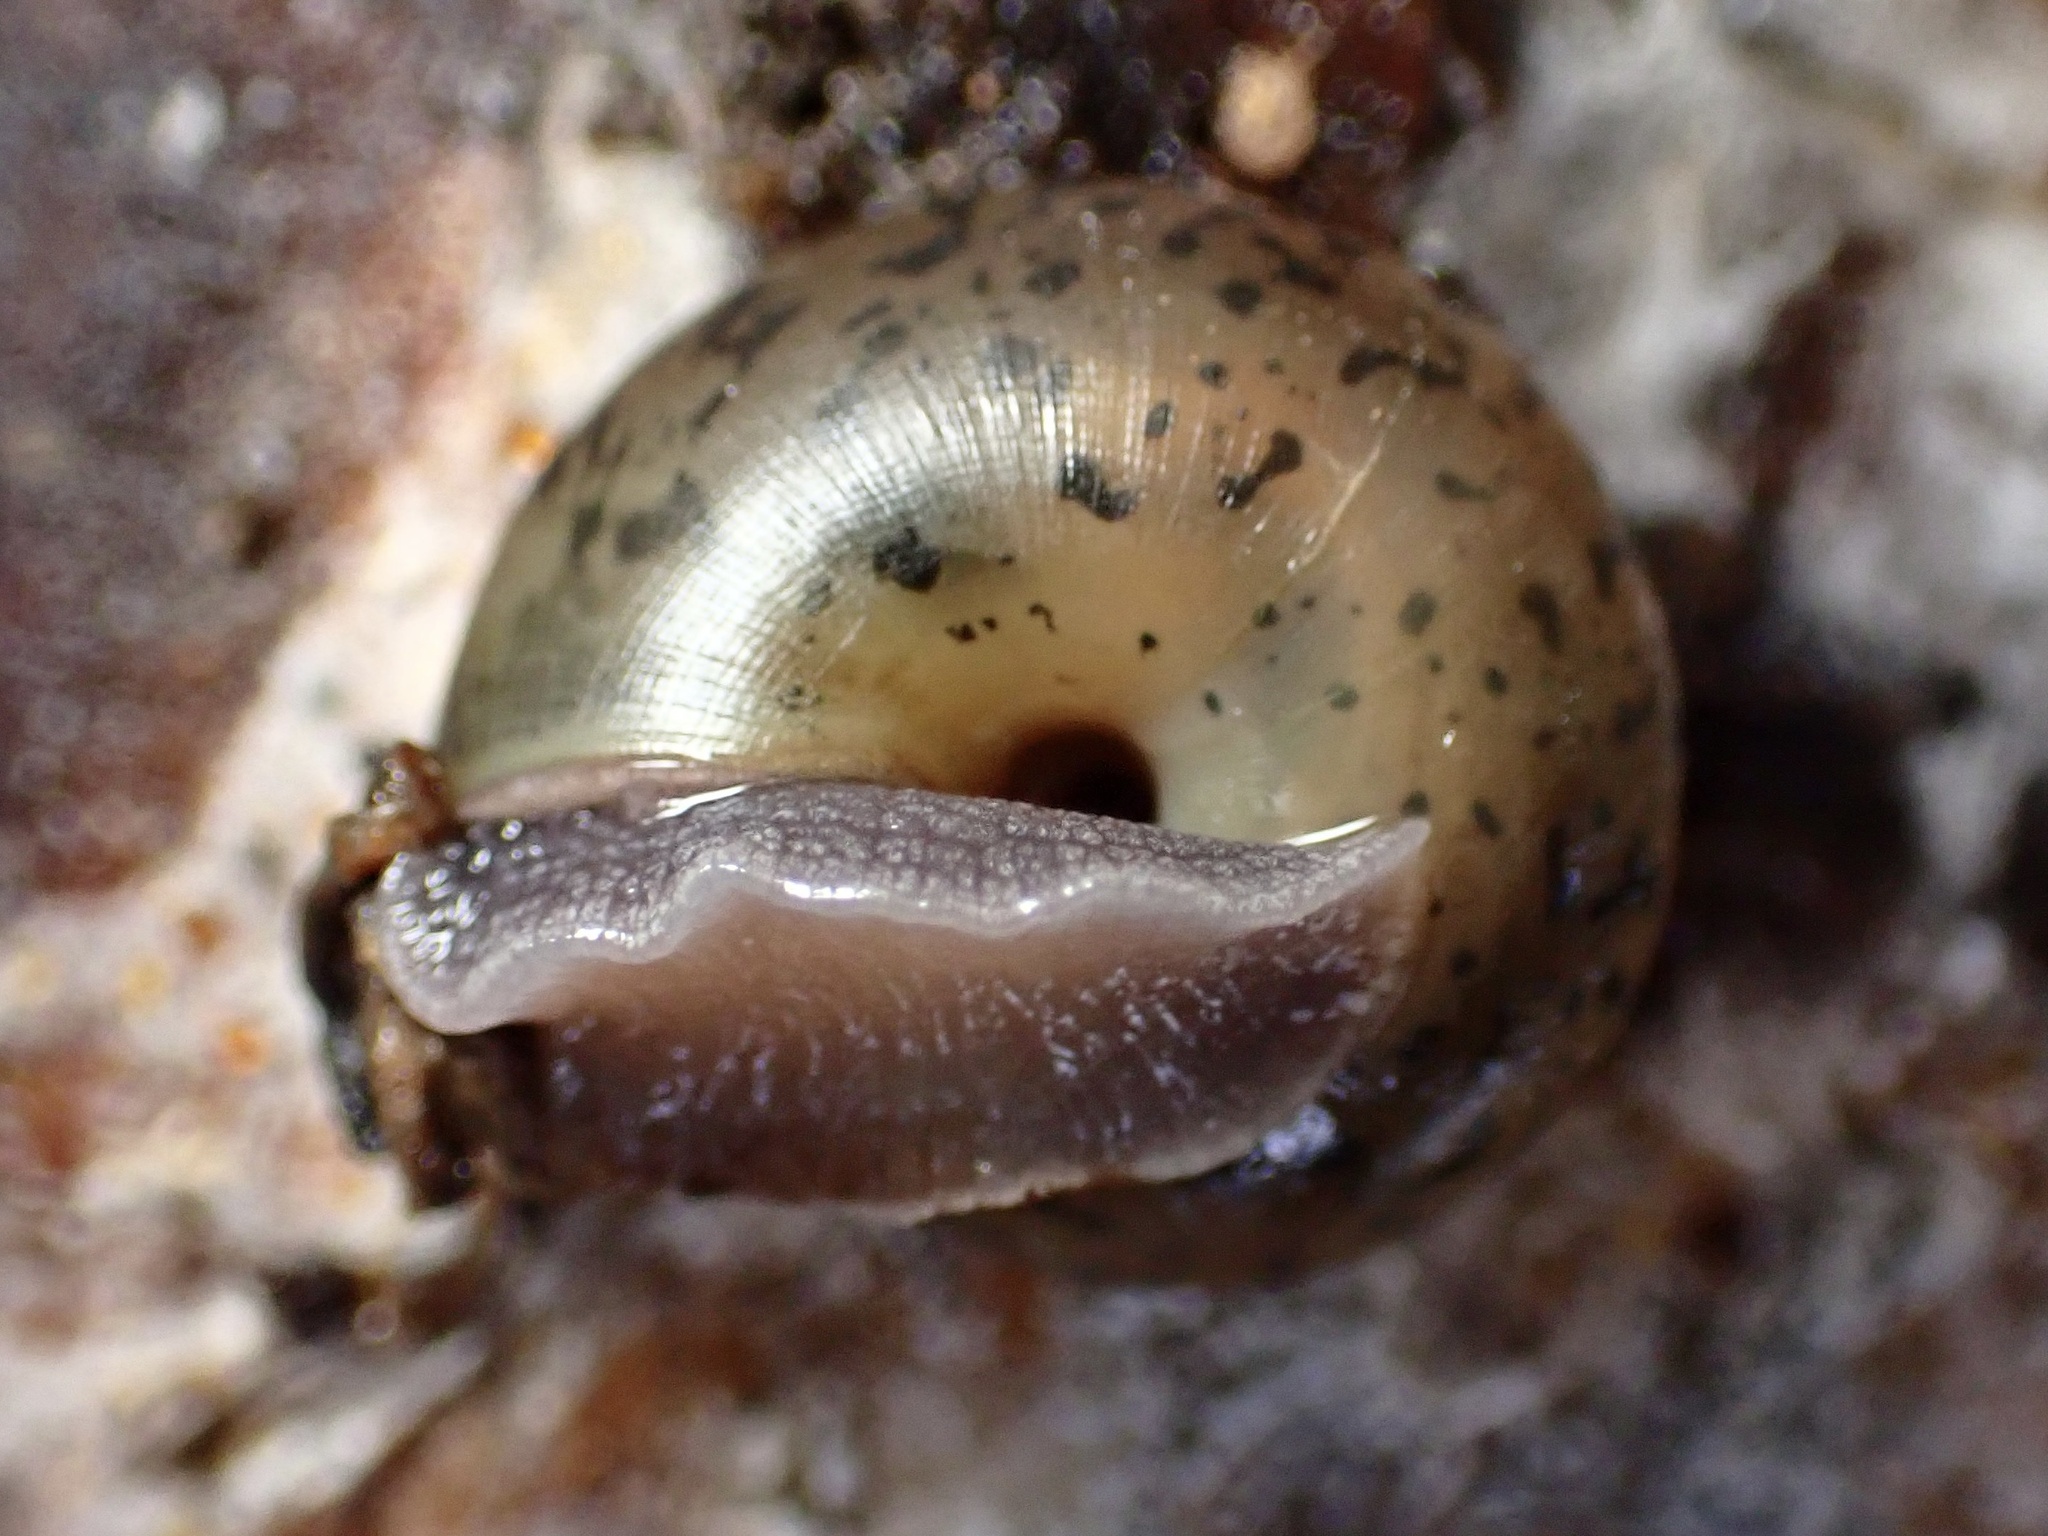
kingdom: Animalia
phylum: Mollusca
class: Gastropoda
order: Stylommatophora
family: Xanthonychidae
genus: Helminthoglypta
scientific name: Helminthoglypta salviae
